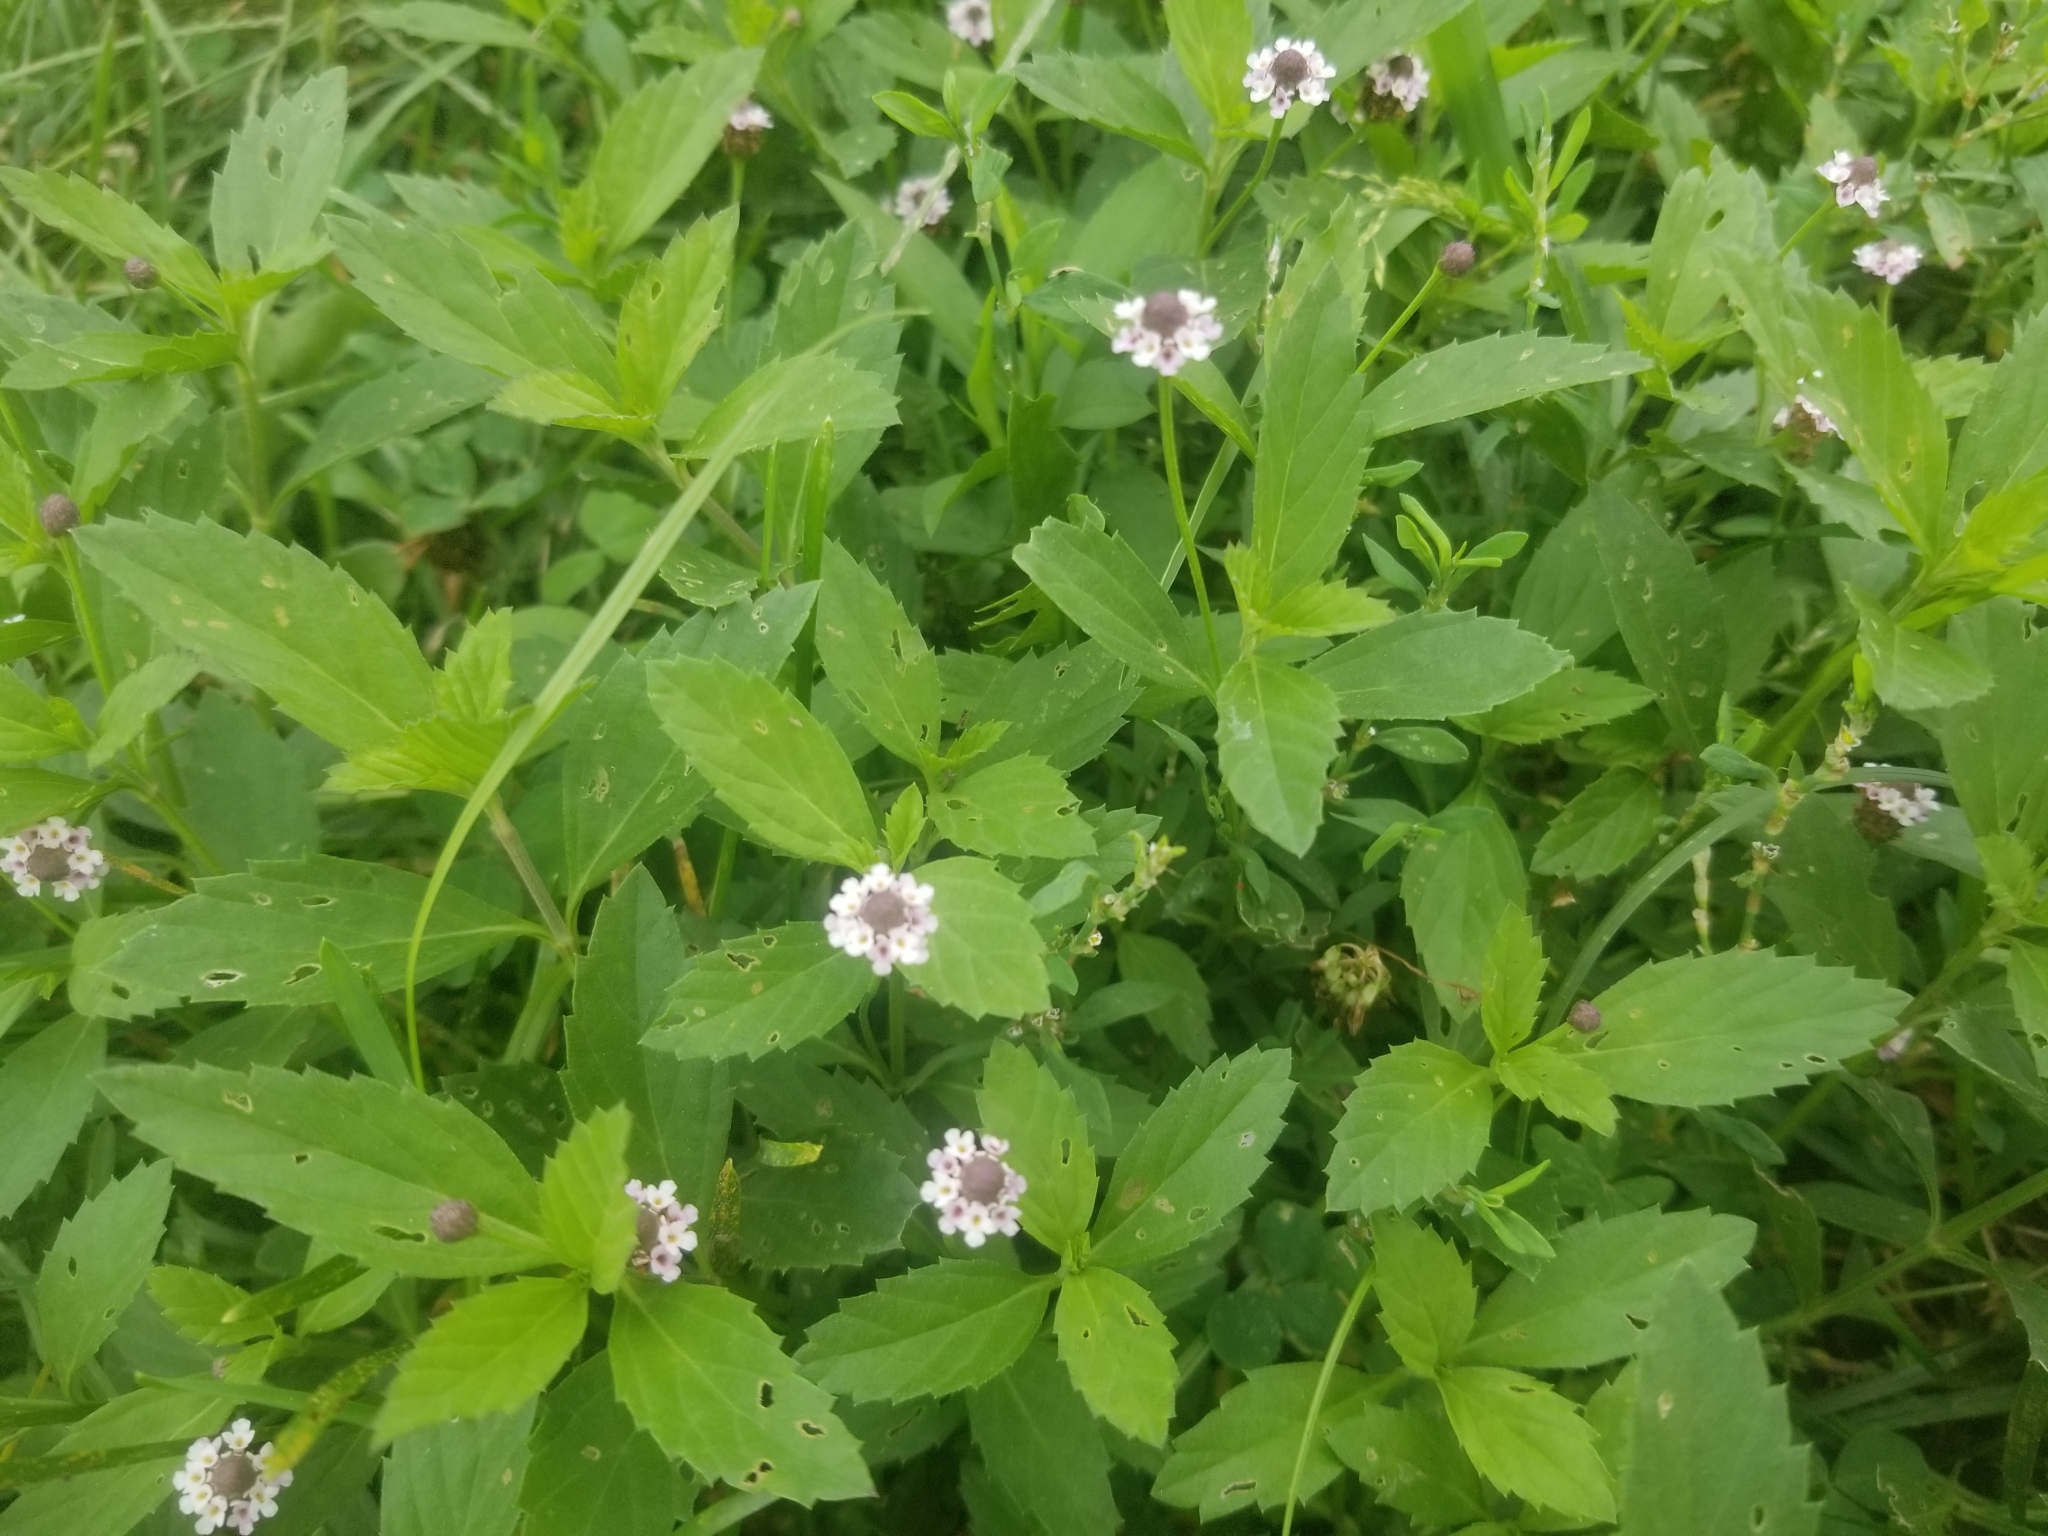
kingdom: Plantae
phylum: Tracheophyta
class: Magnoliopsida
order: Lamiales
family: Verbenaceae
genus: Phyla
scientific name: Phyla lanceolata
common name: Northern fogfruit
